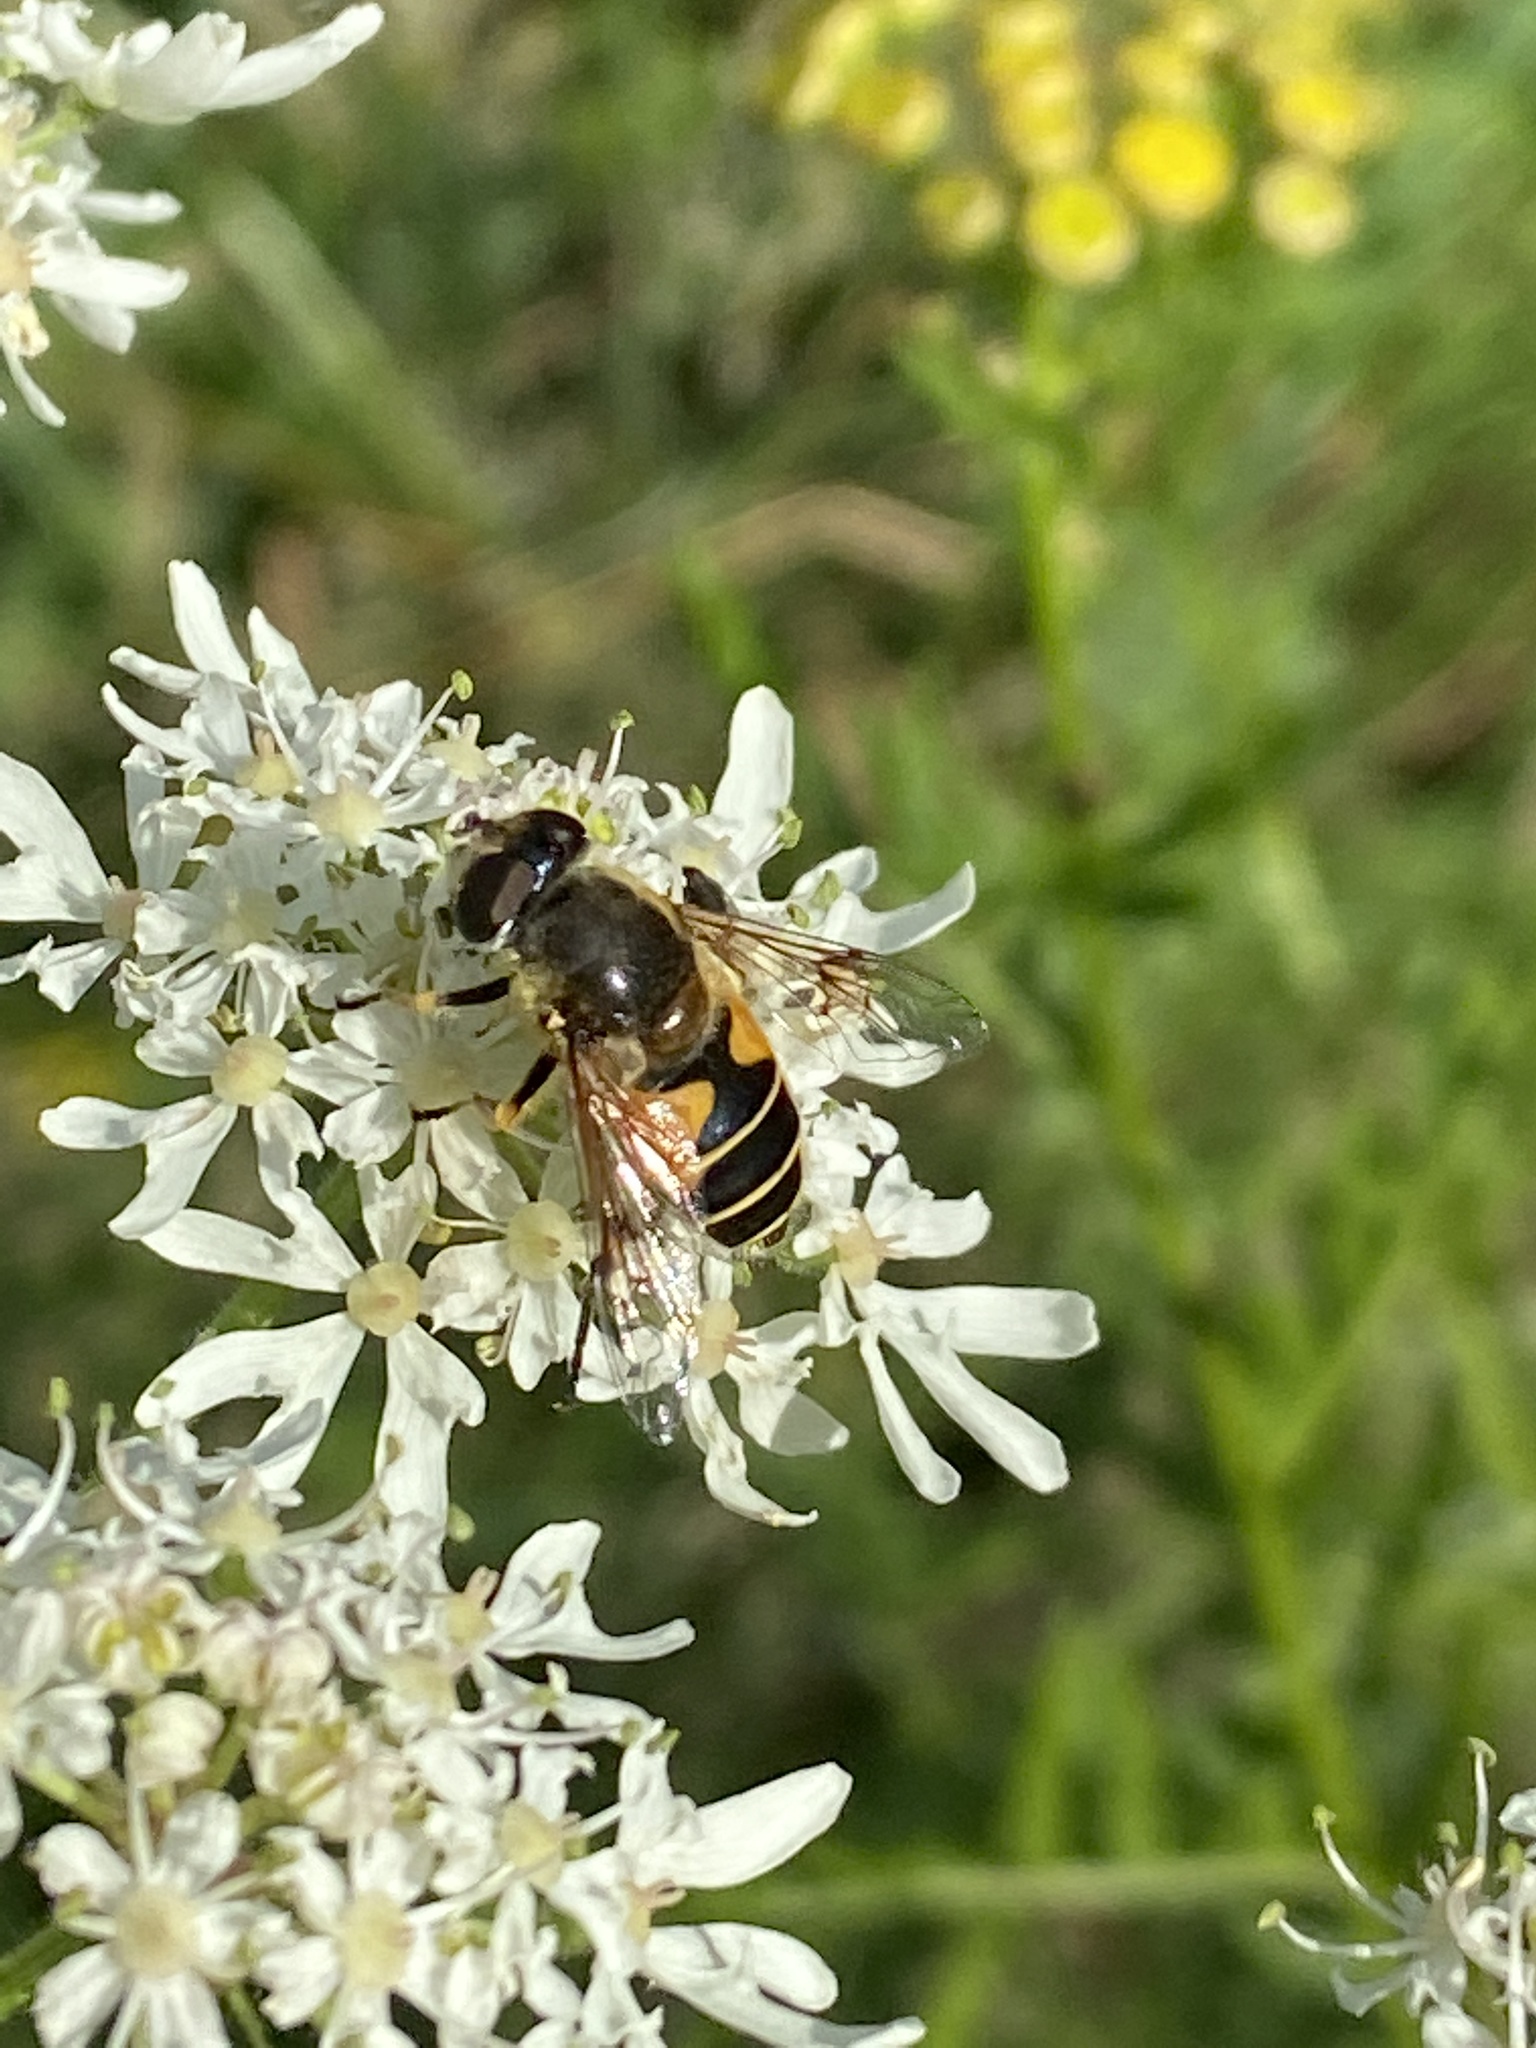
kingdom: Animalia
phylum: Arthropoda
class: Insecta
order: Diptera
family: Syrphidae
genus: Cheilosia
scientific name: Cheilosia morio
